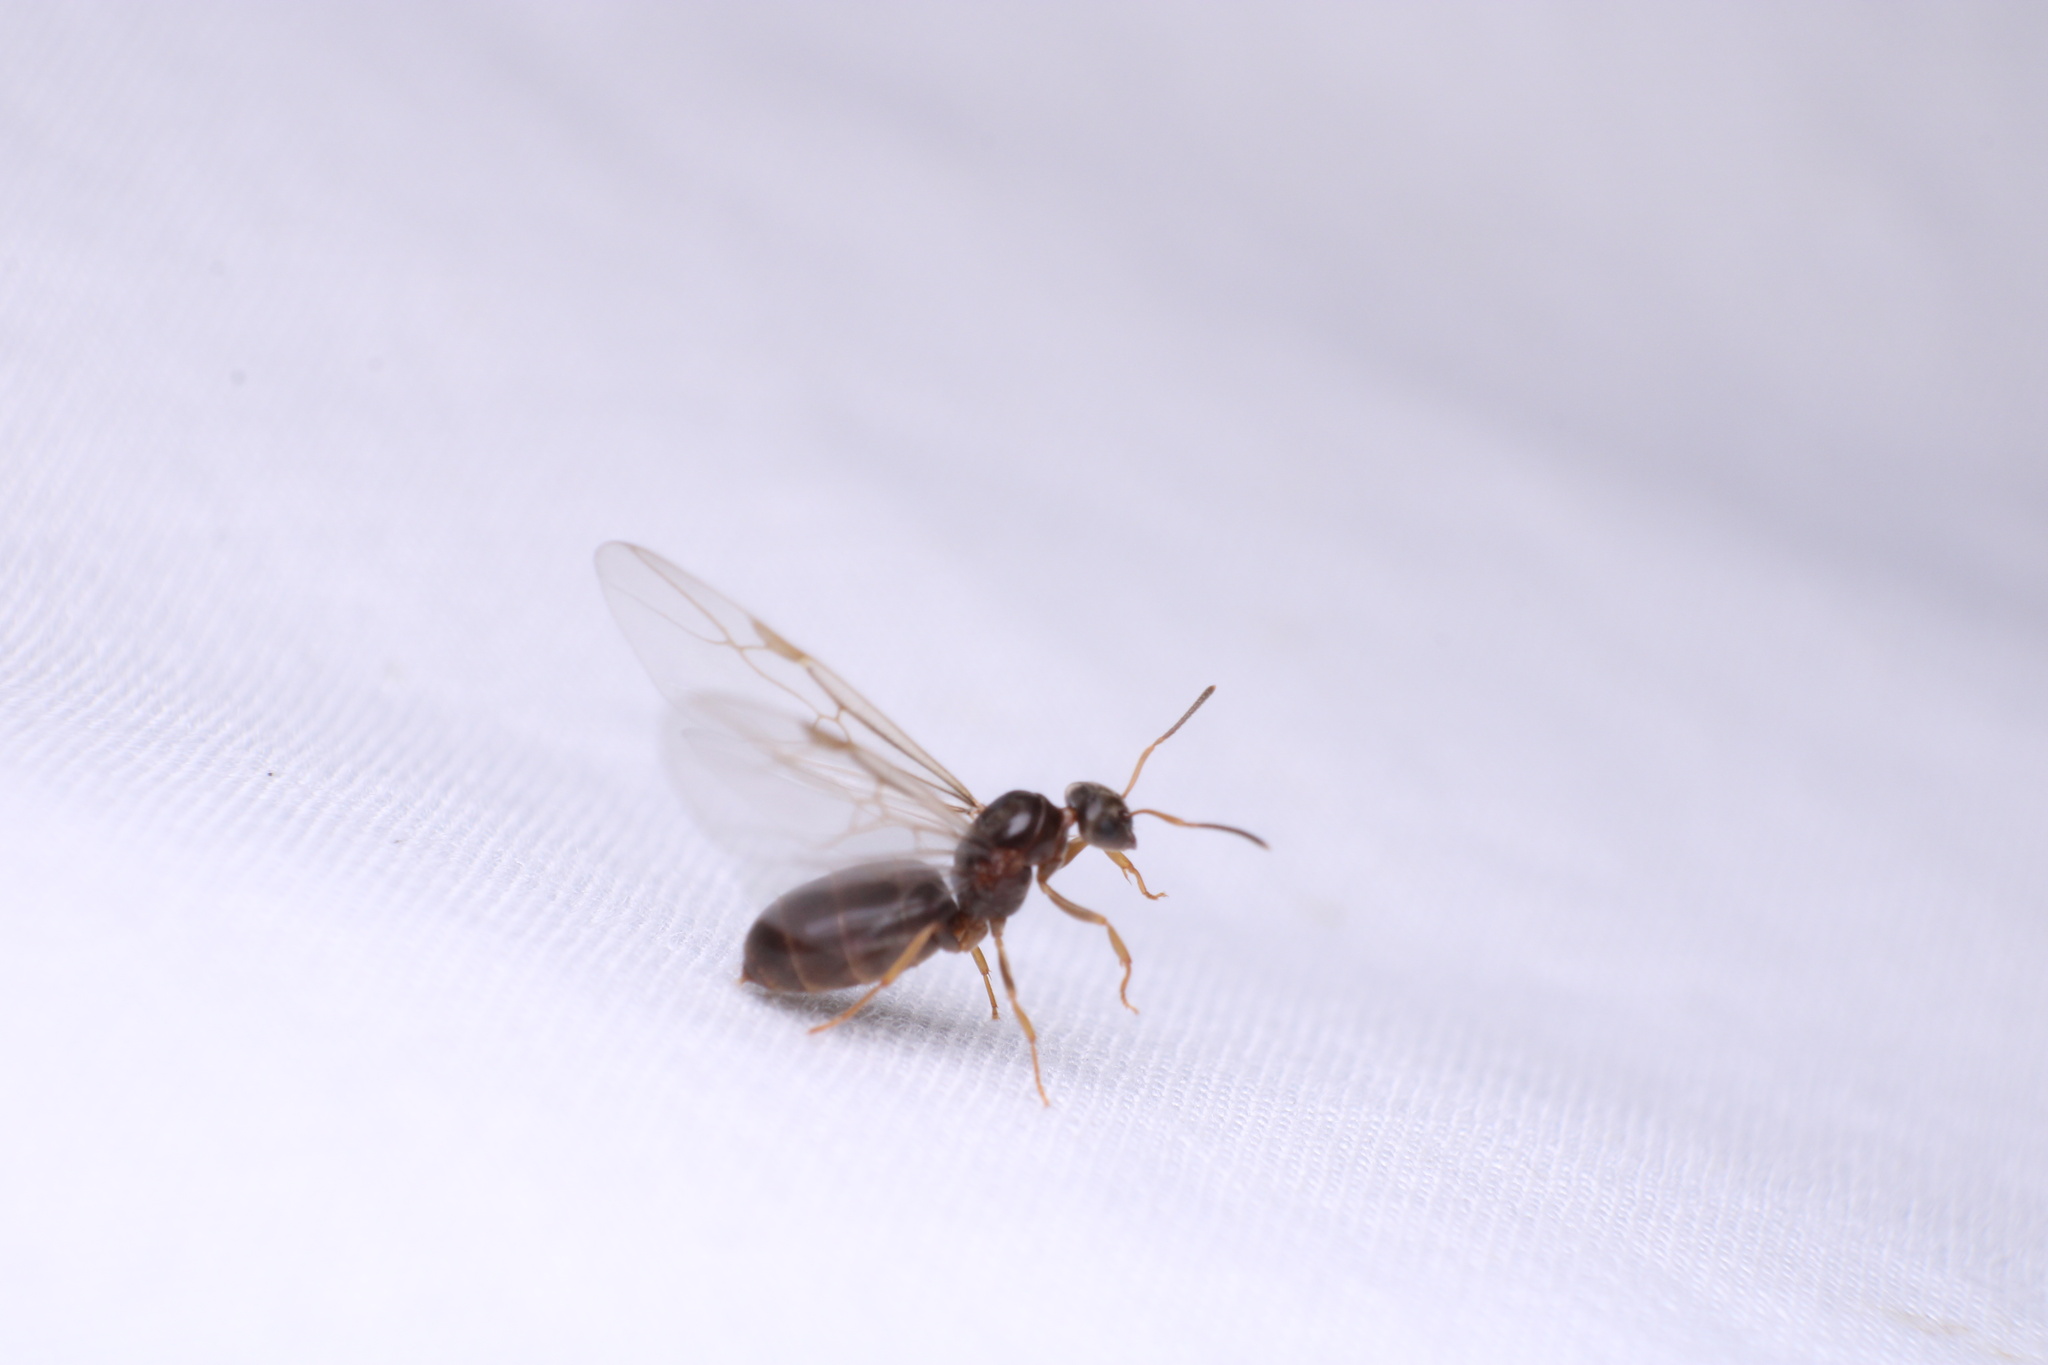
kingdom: Animalia
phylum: Arthropoda
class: Insecta
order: Hymenoptera
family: Formicidae
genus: Lasius
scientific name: Lasius americanus
